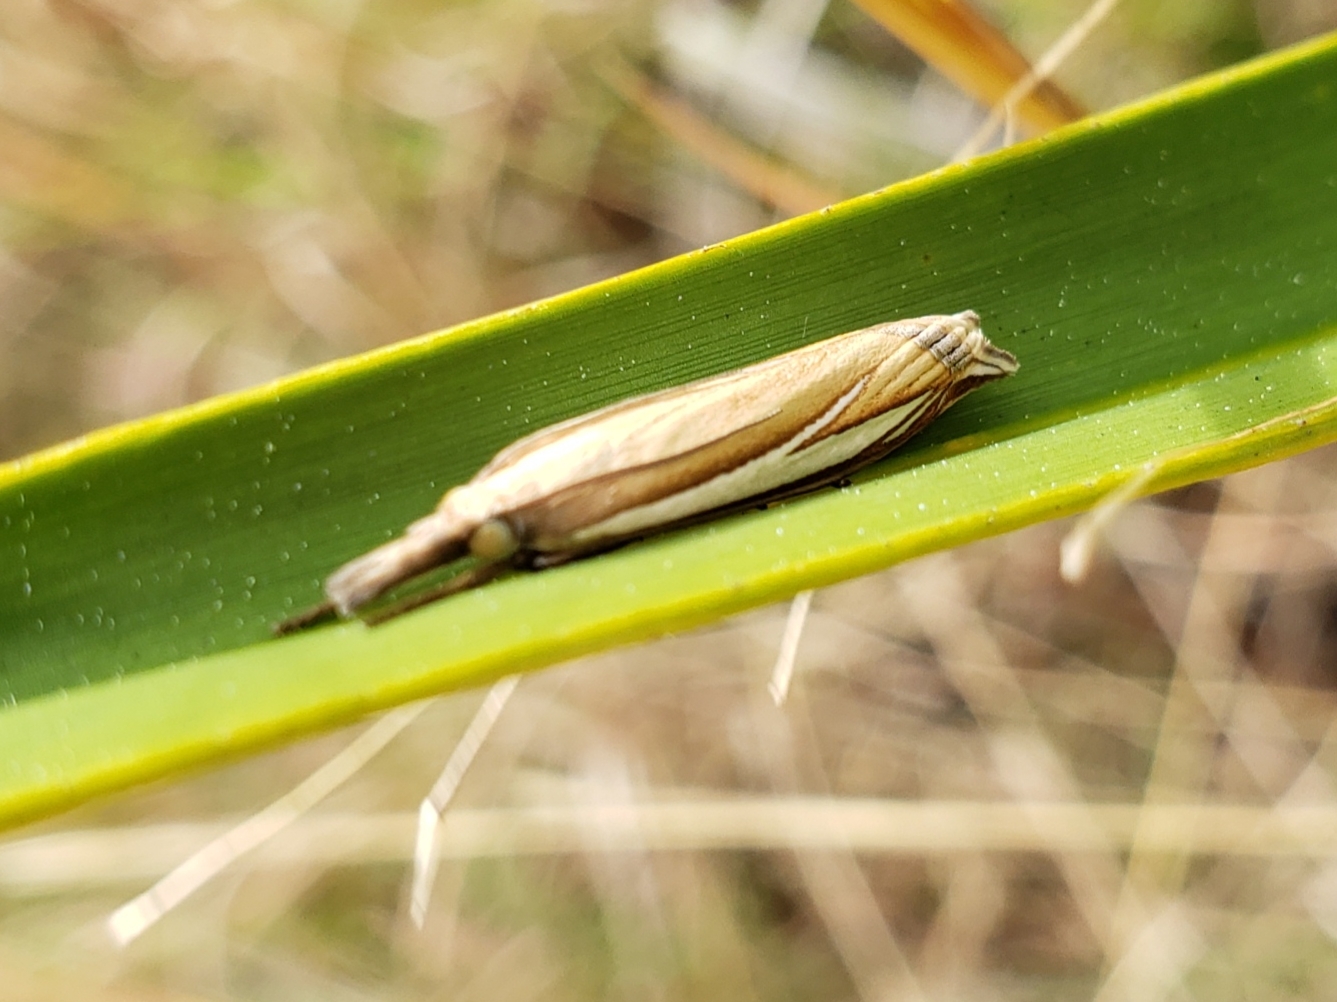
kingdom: Animalia
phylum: Arthropoda
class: Insecta
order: Lepidoptera
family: Crambidae
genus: Crambus
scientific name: Crambus satrapellus
